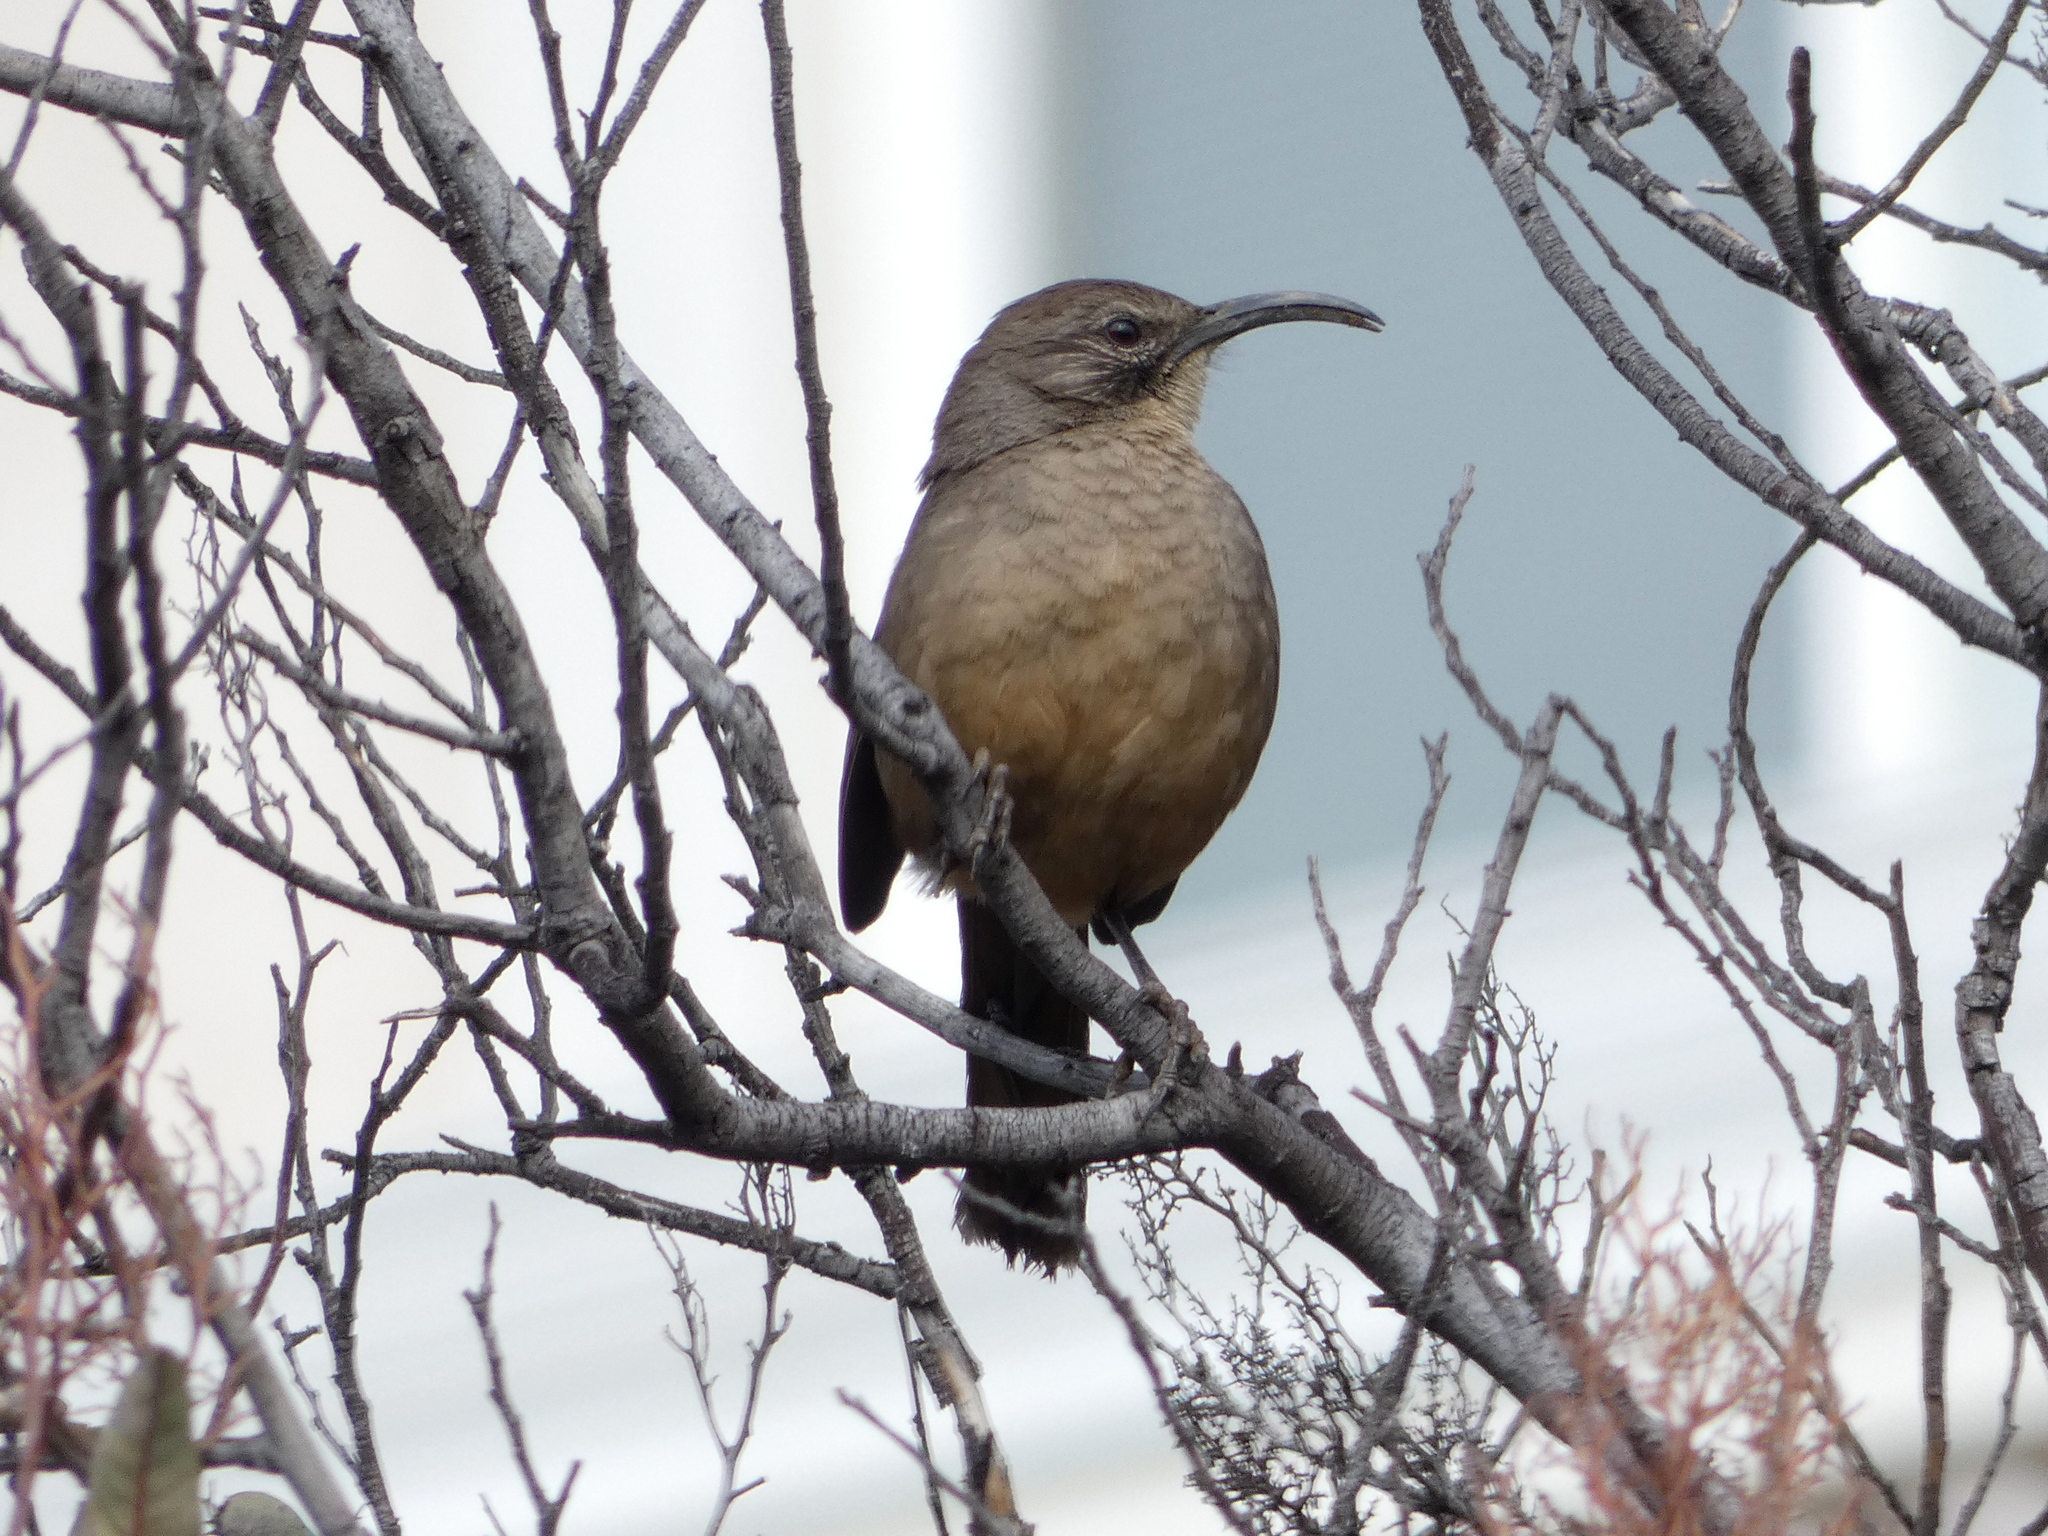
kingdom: Animalia
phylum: Chordata
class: Aves
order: Passeriformes
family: Mimidae
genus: Toxostoma
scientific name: Toxostoma redivivum
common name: California thrasher
